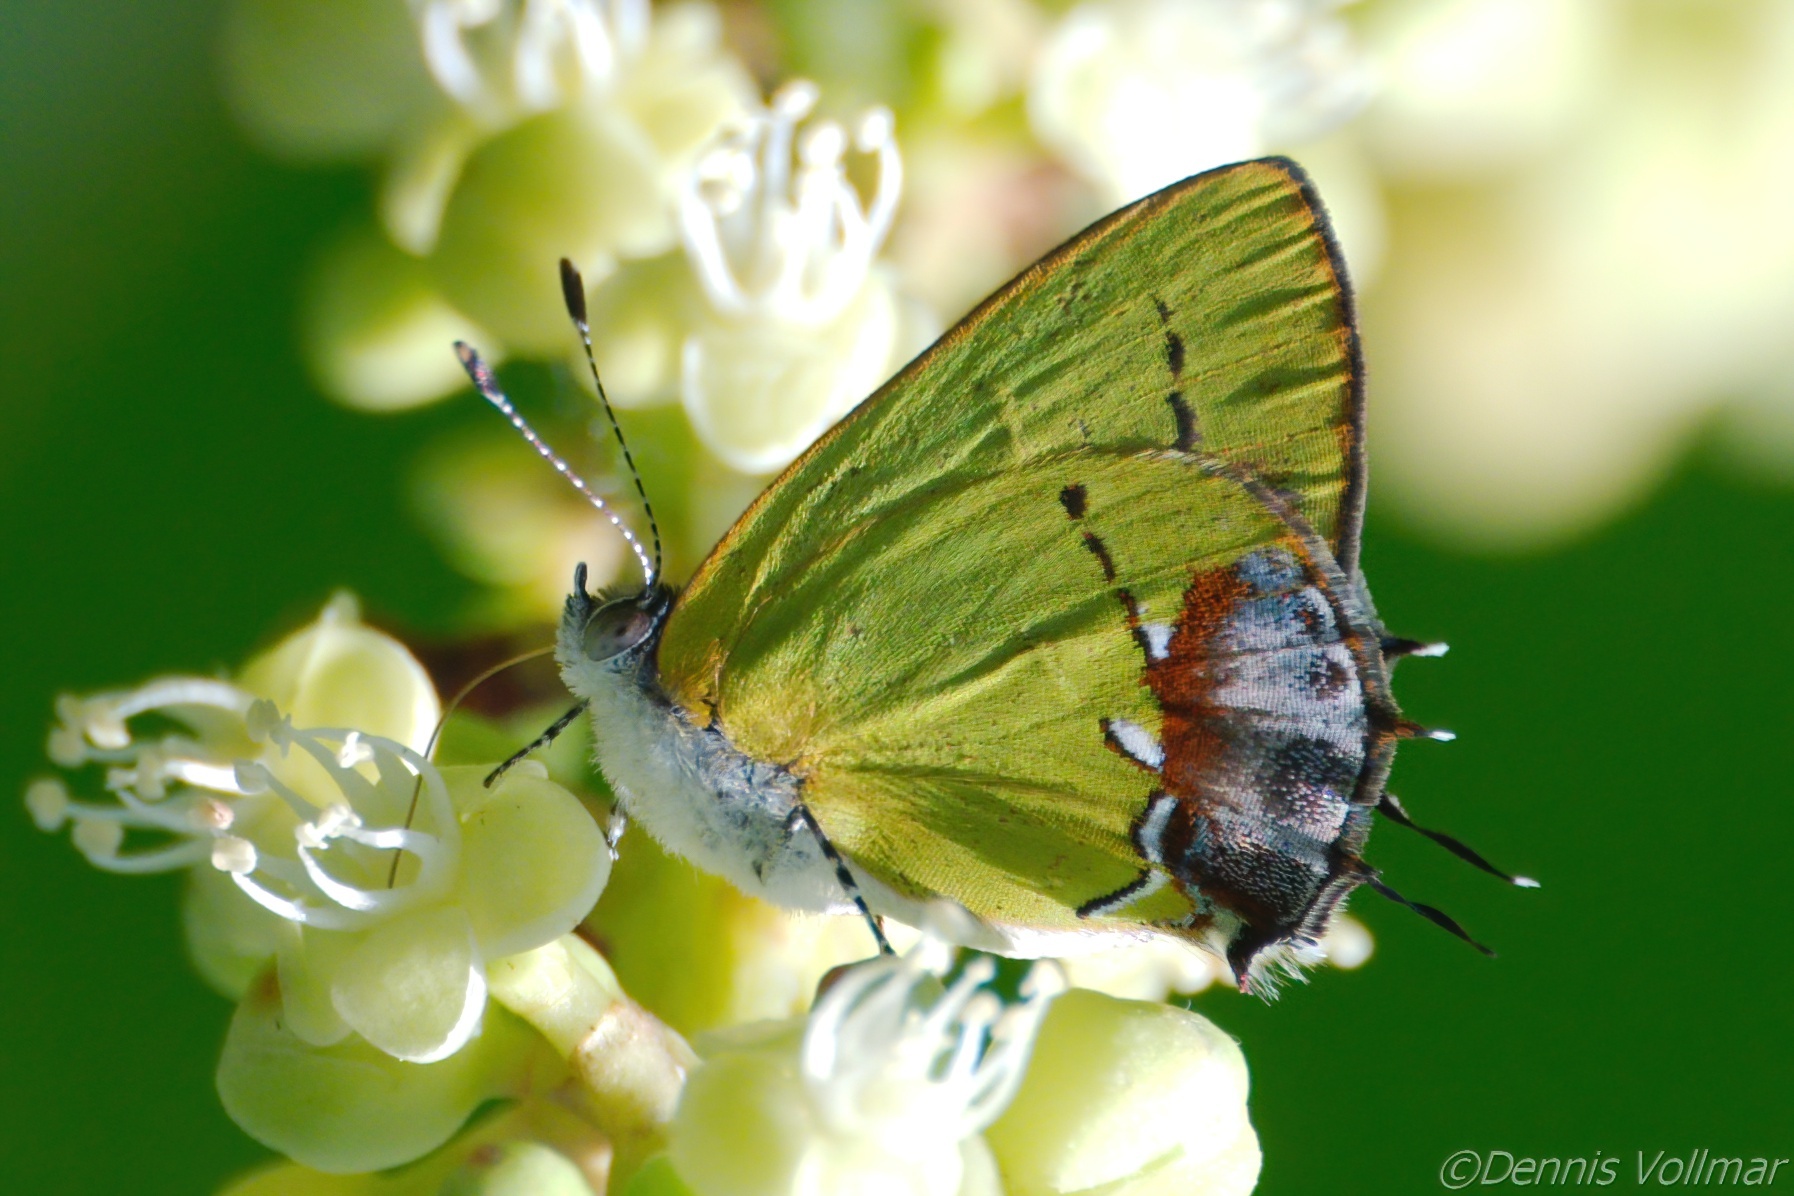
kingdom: Animalia
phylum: Arthropoda
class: Insecta
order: Lepidoptera
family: Lycaenidae
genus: Thecla
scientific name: Thecla maesites
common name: Verde azul hairstreak
